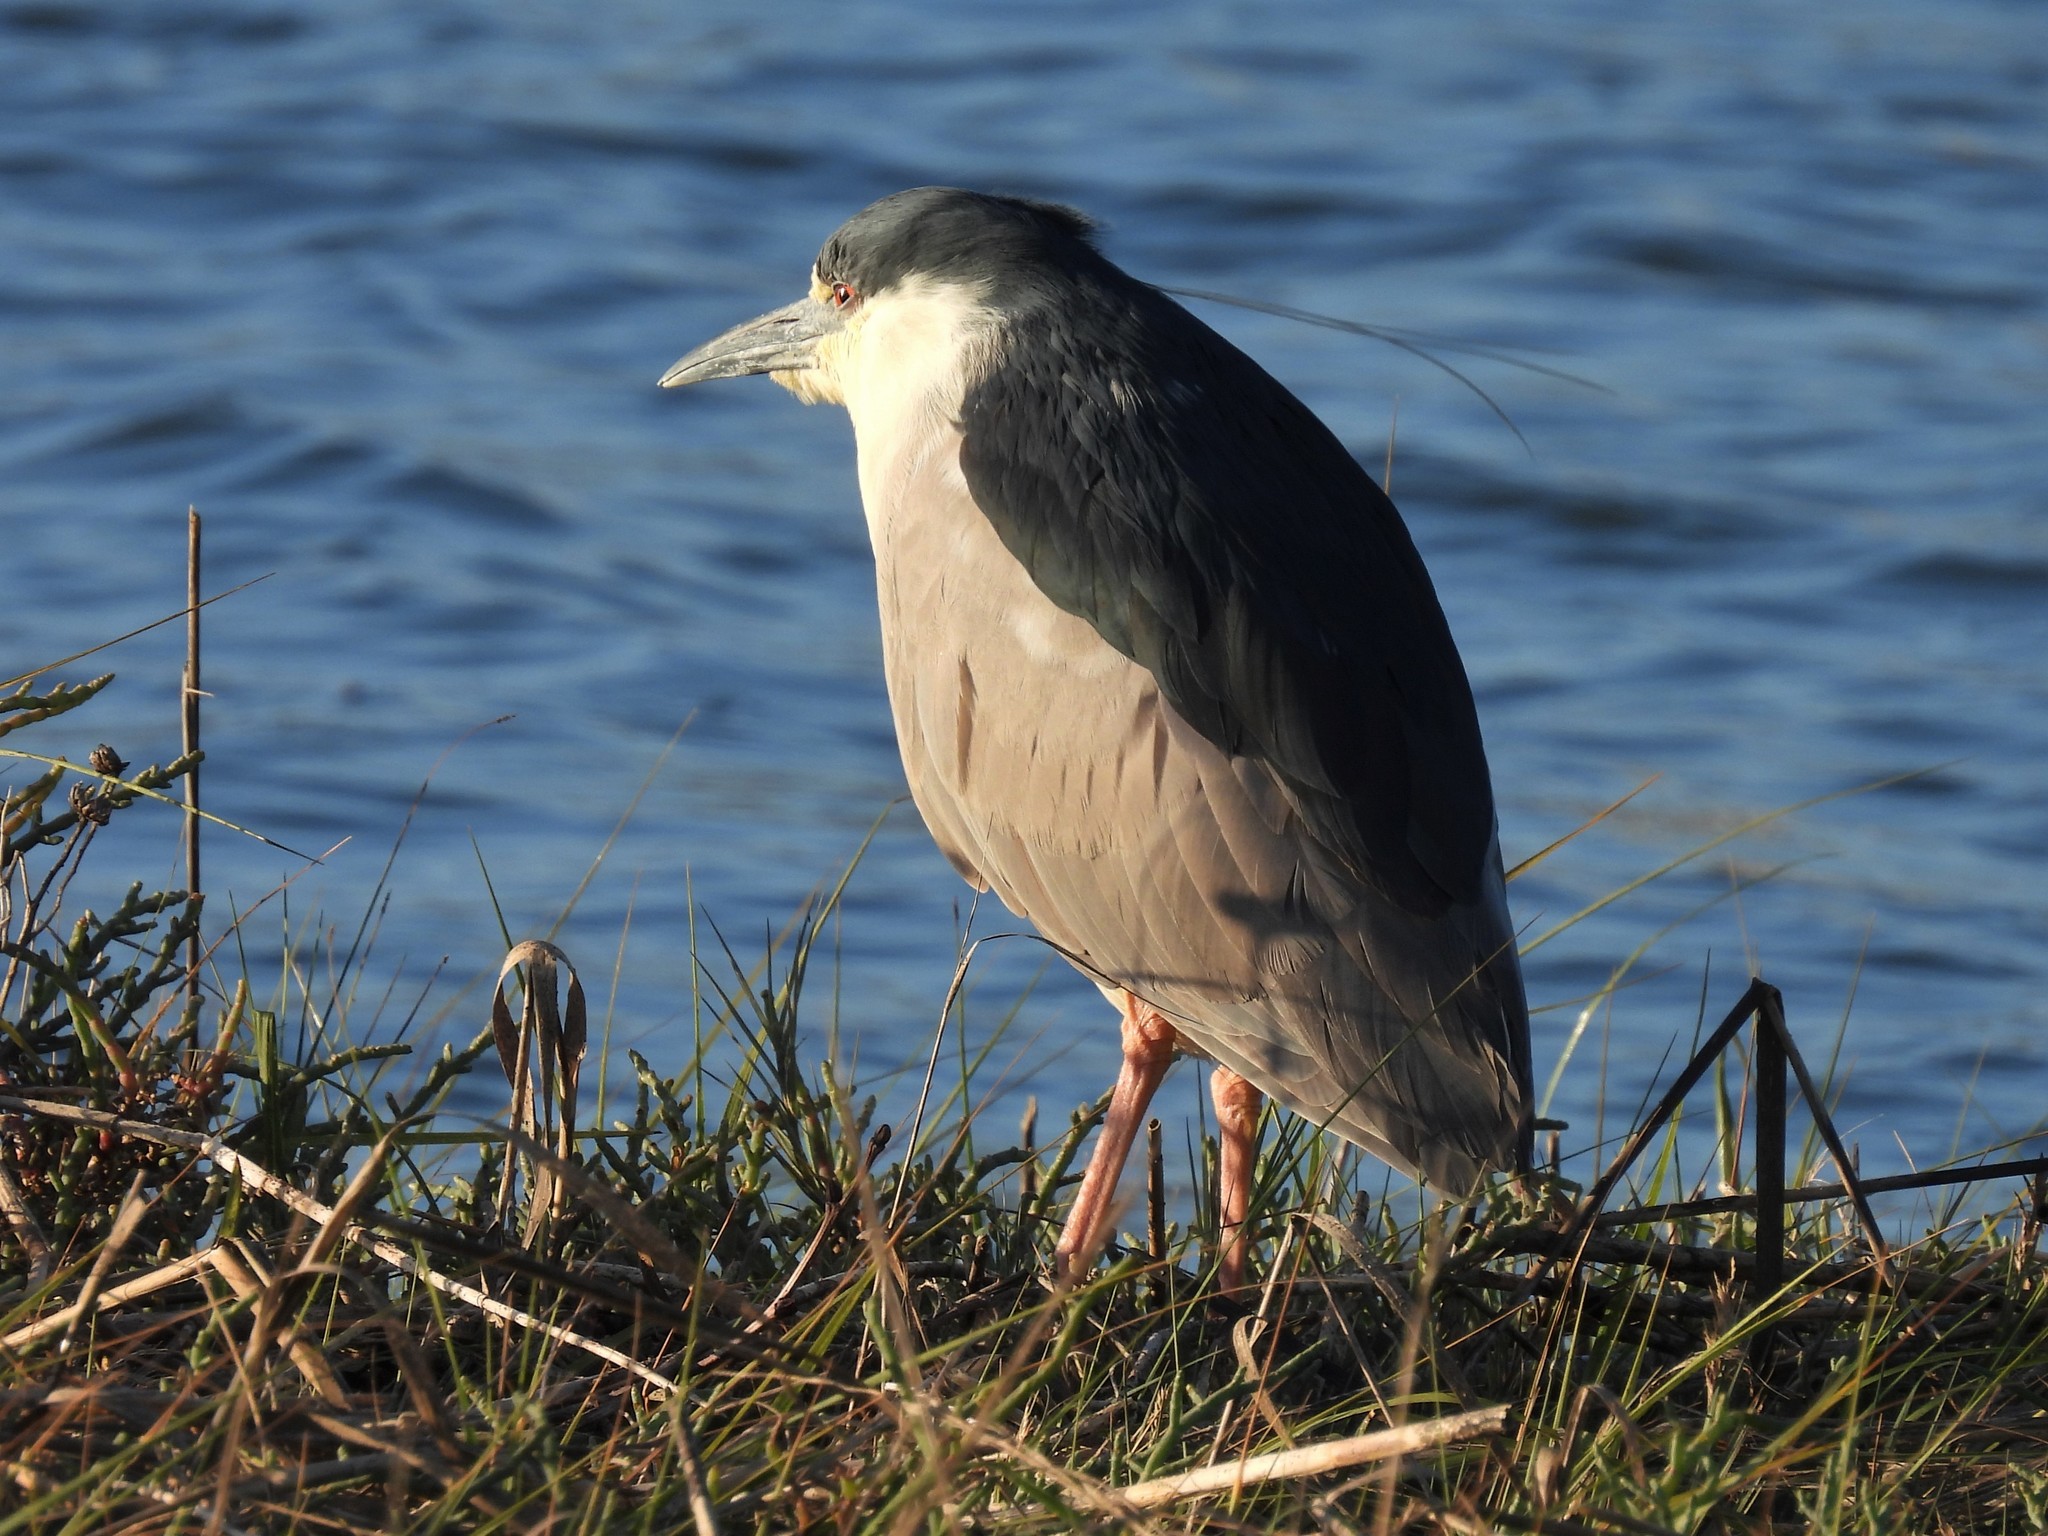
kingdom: Animalia
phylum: Chordata
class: Aves
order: Pelecaniformes
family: Ardeidae
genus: Nycticorax
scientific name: Nycticorax nycticorax
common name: Black-crowned night heron
